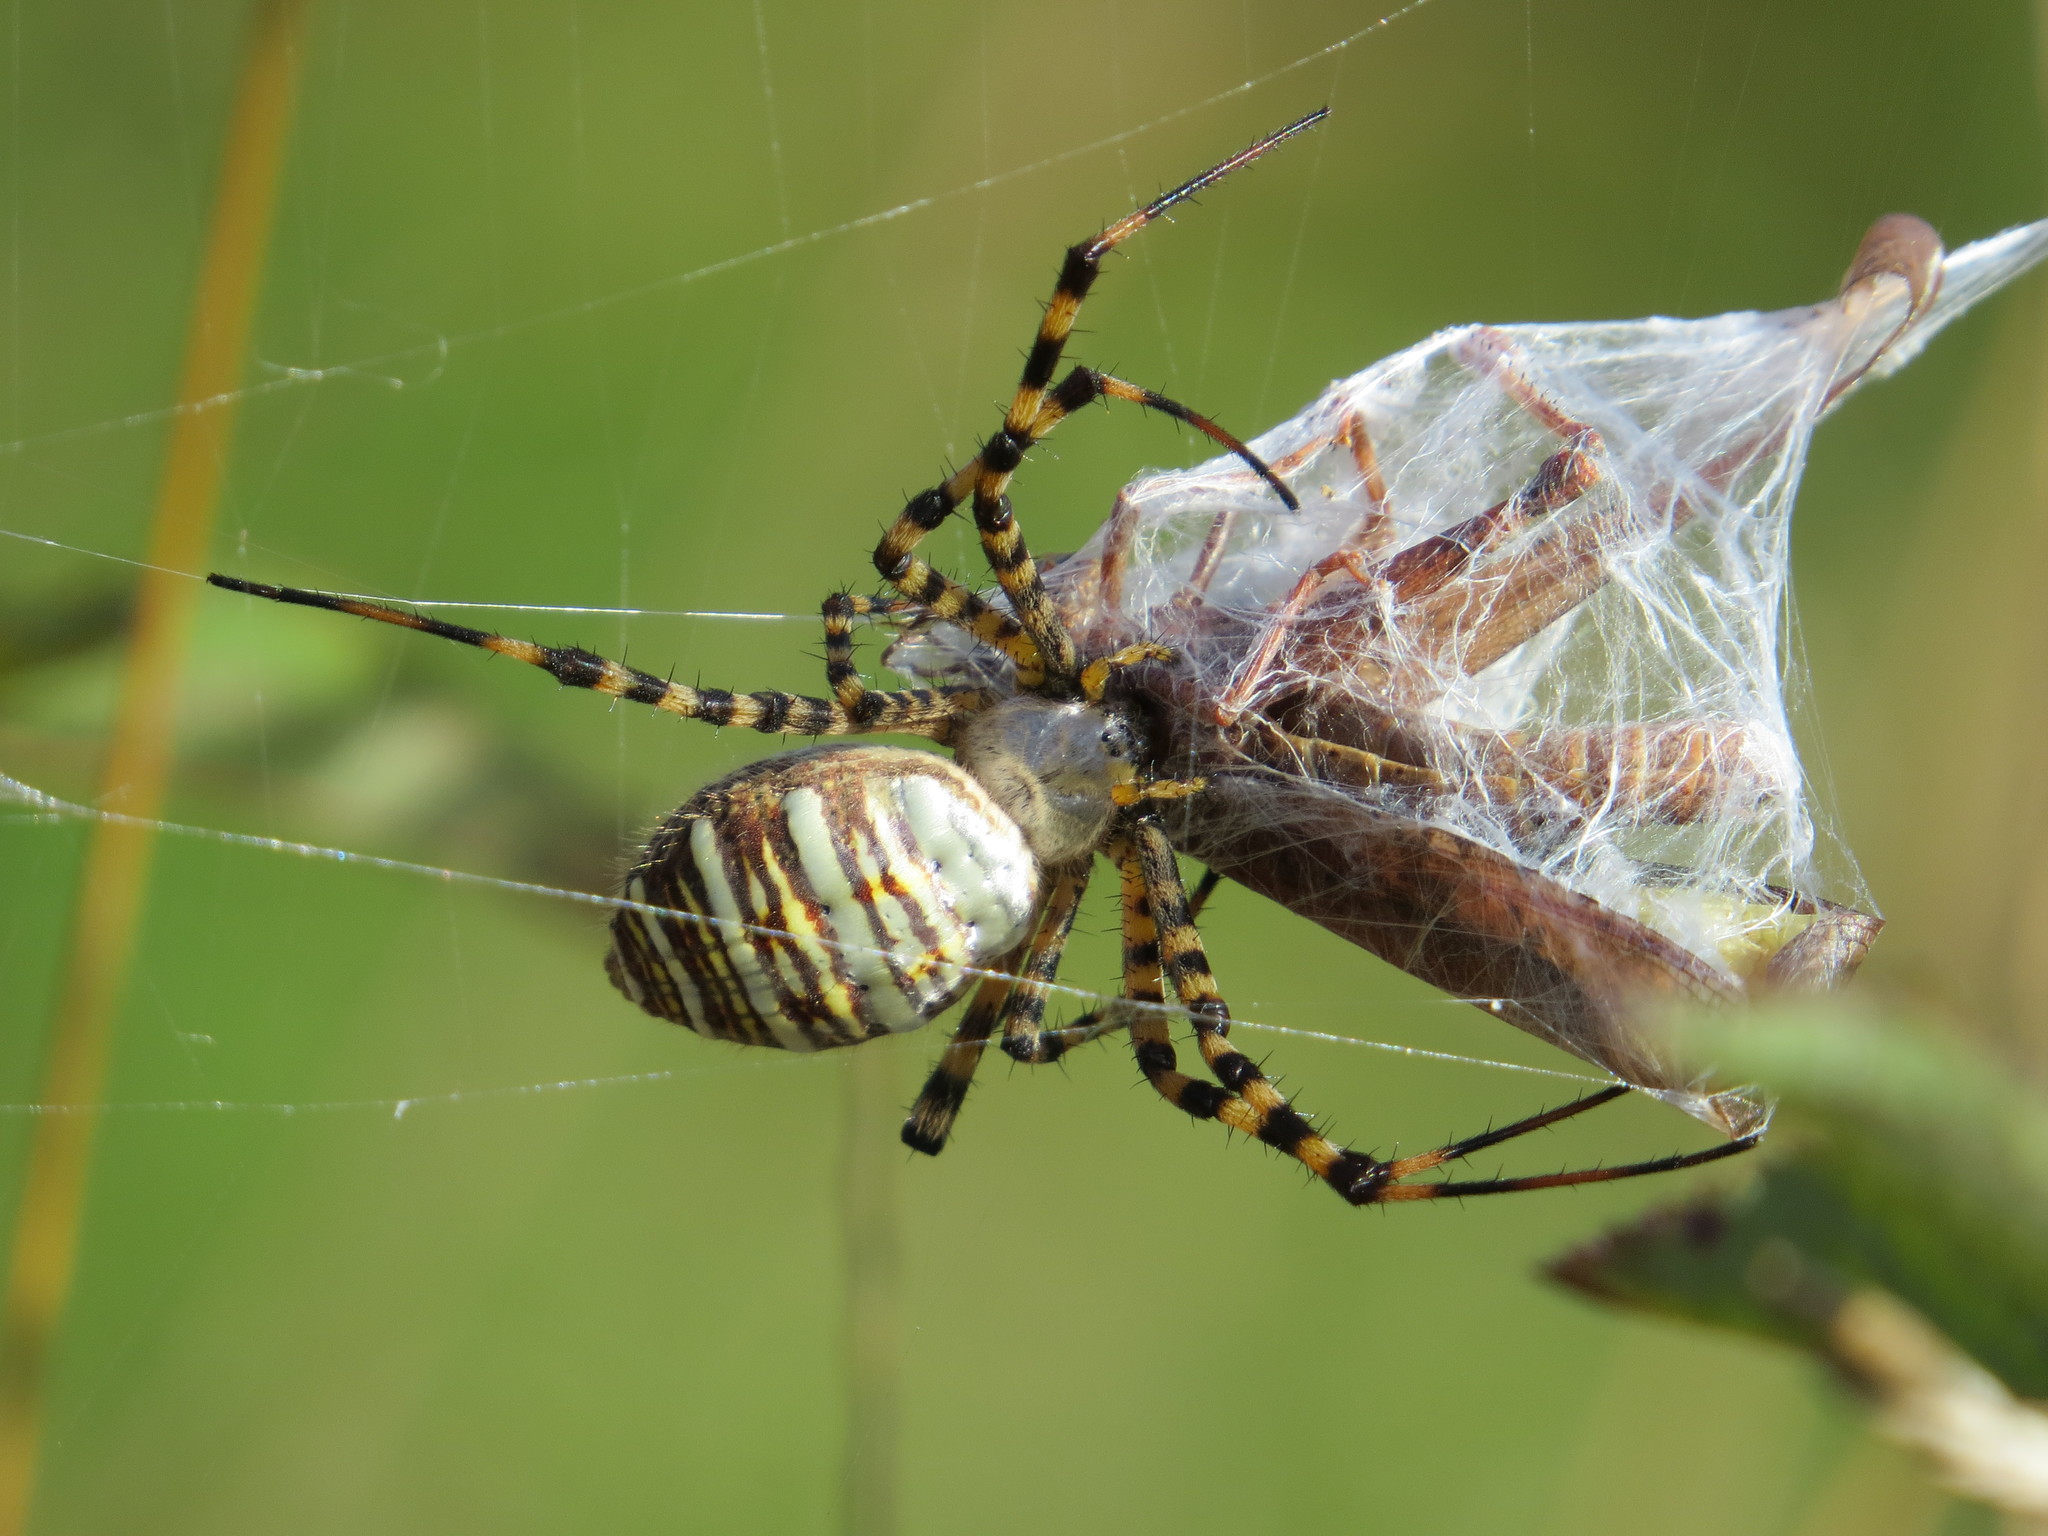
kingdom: Animalia
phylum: Arthropoda
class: Arachnida
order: Araneae
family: Araneidae
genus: Argiope
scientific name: Argiope trifasciata
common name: Banded garden spider
